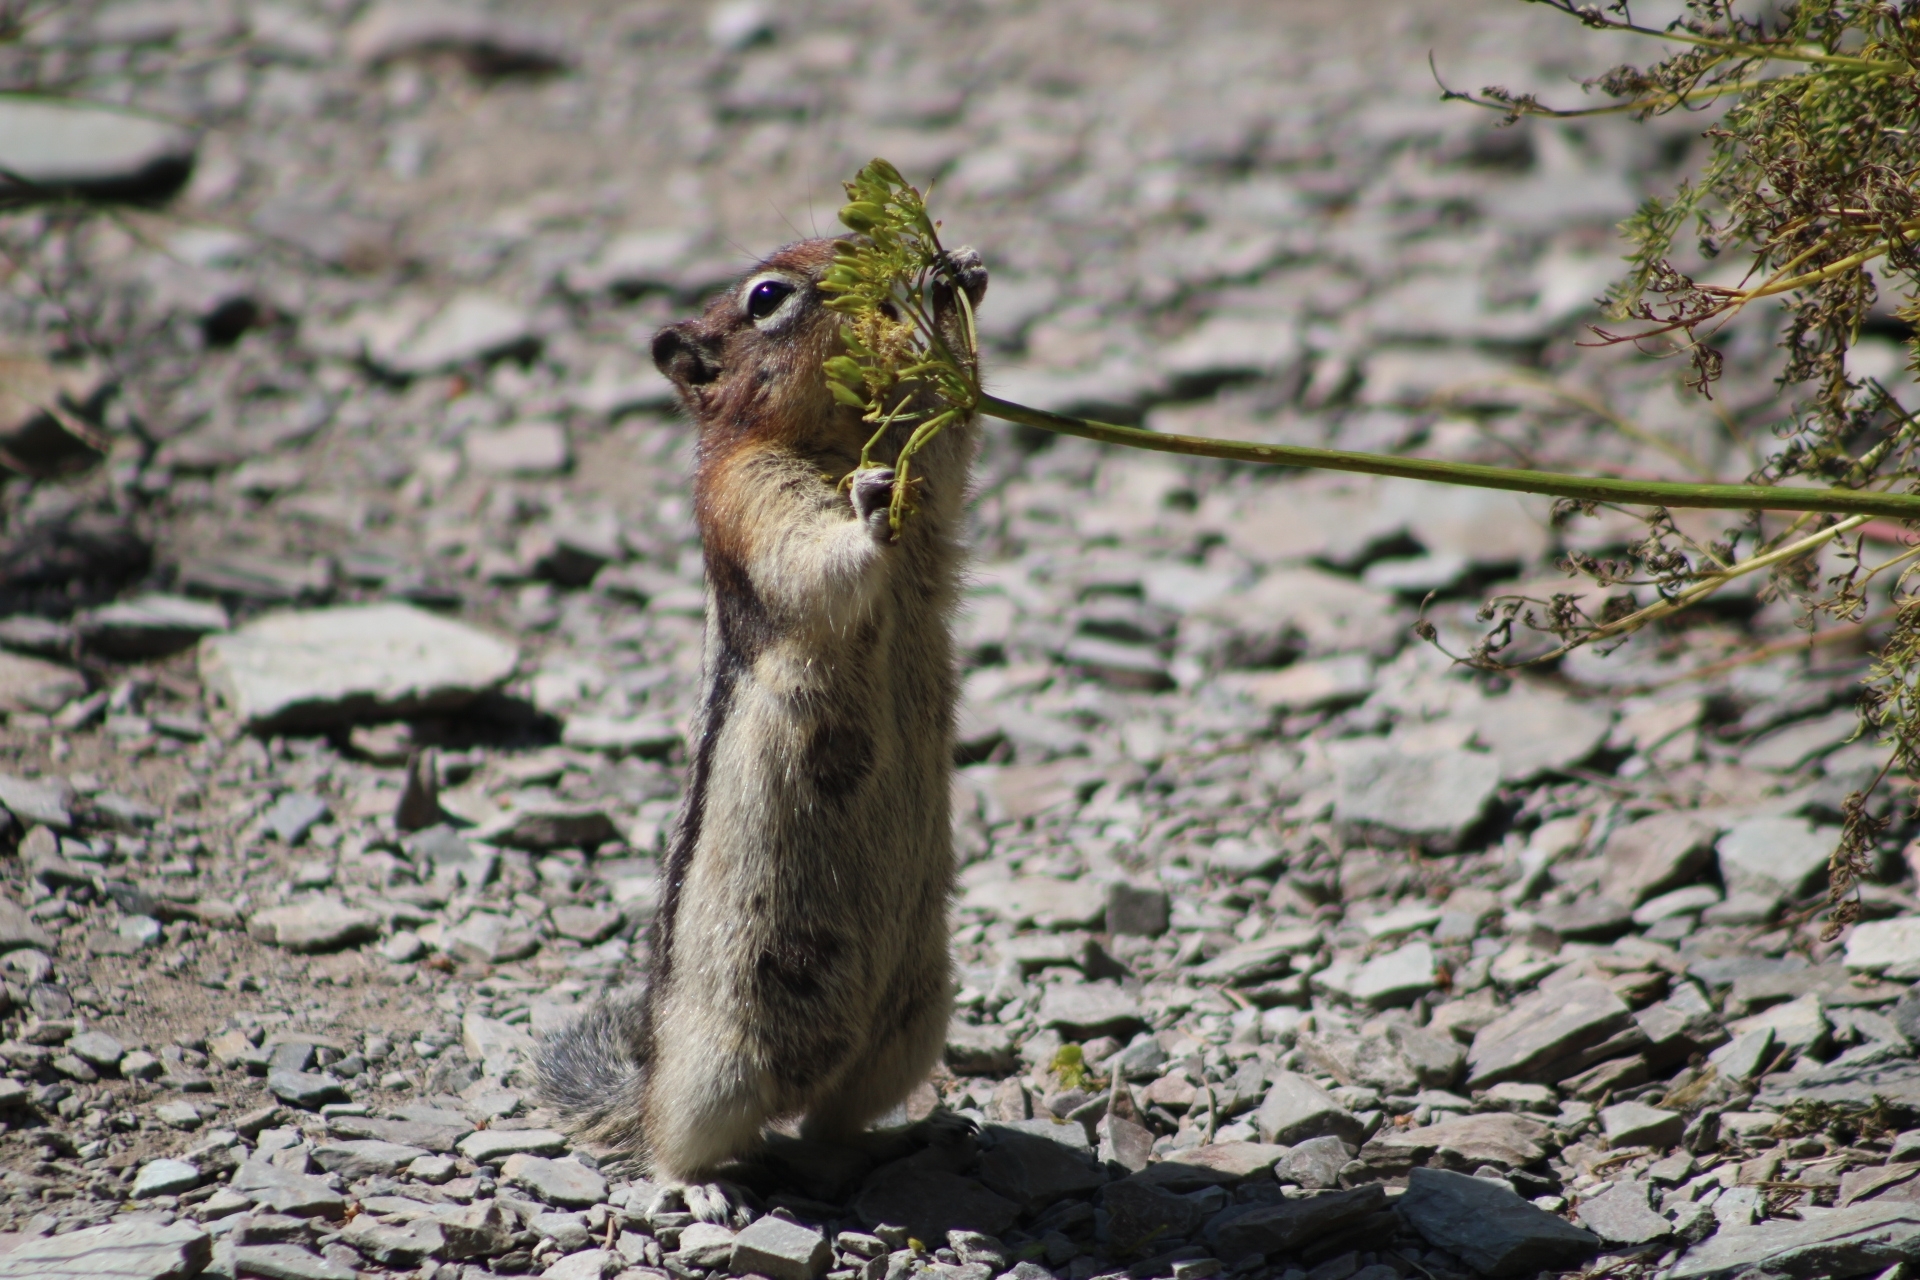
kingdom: Animalia
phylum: Chordata
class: Mammalia
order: Rodentia
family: Sciuridae
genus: Callospermophilus
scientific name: Callospermophilus lateralis
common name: Golden-mantled ground squirrel
